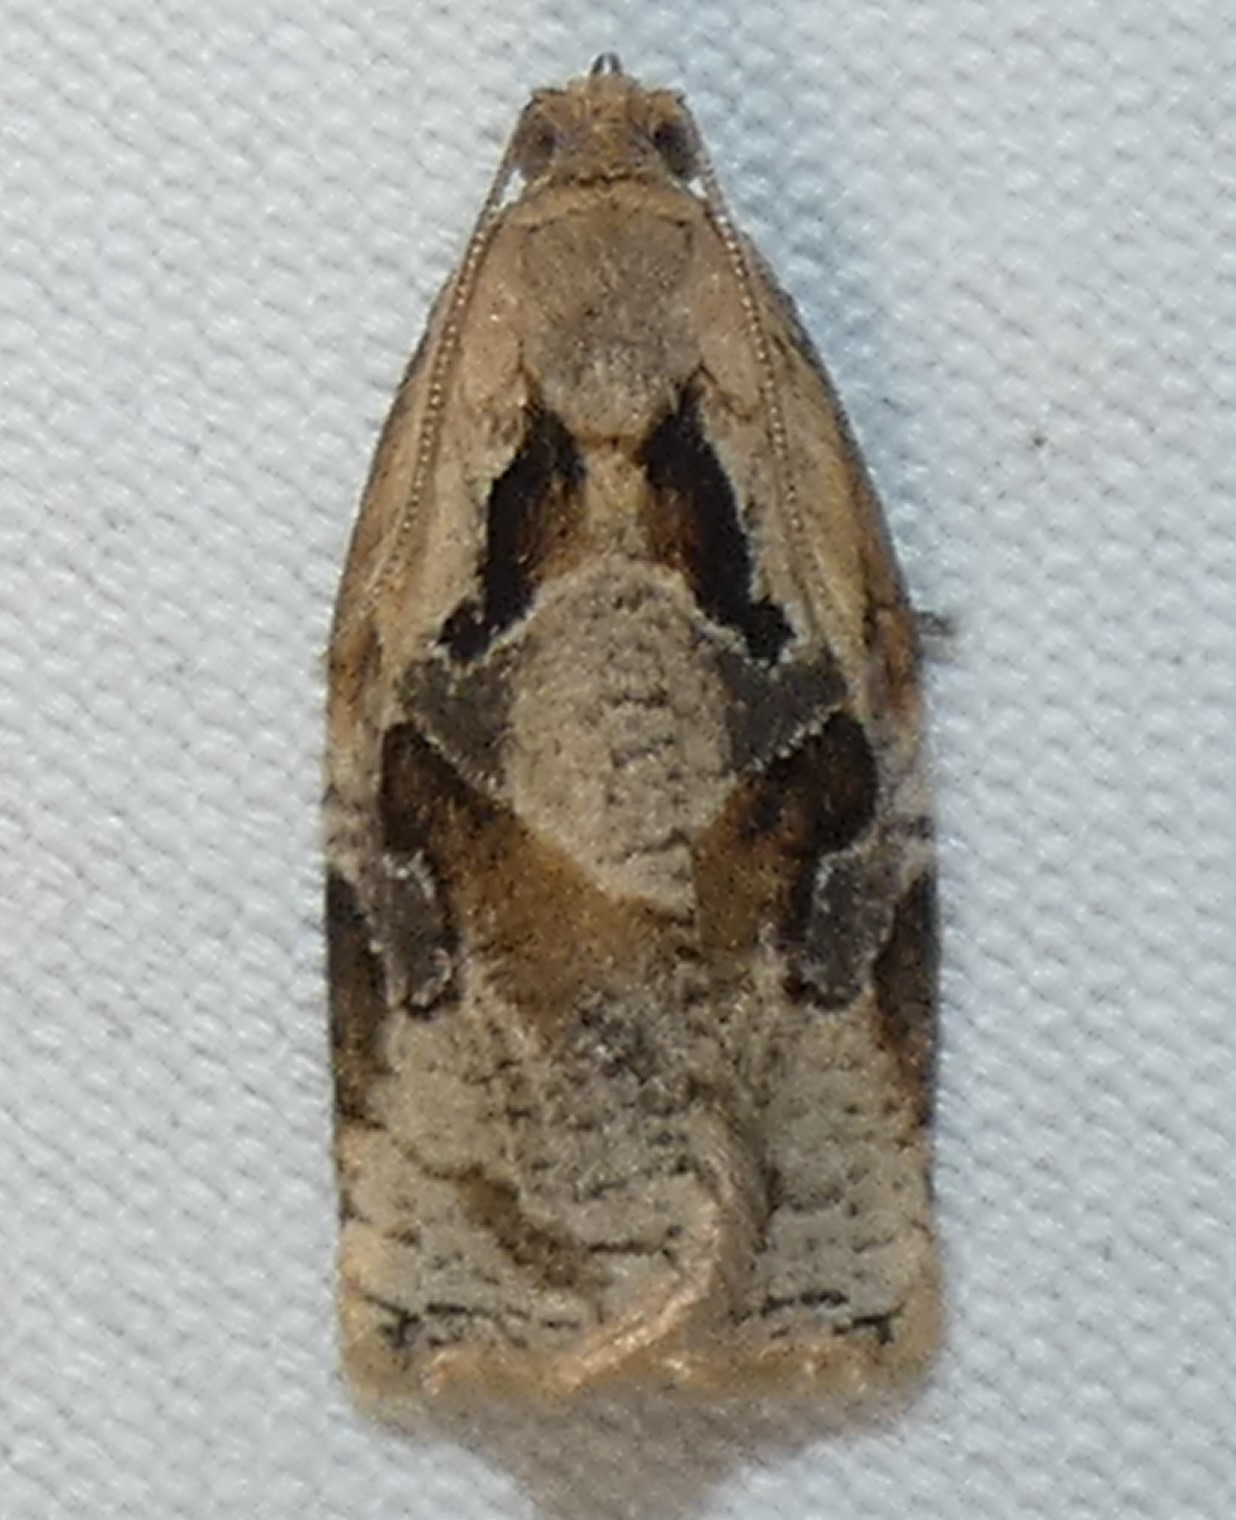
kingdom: Animalia
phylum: Arthropoda
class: Insecta
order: Lepidoptera
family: Tortricidae
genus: Archips
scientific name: Archips grisea
